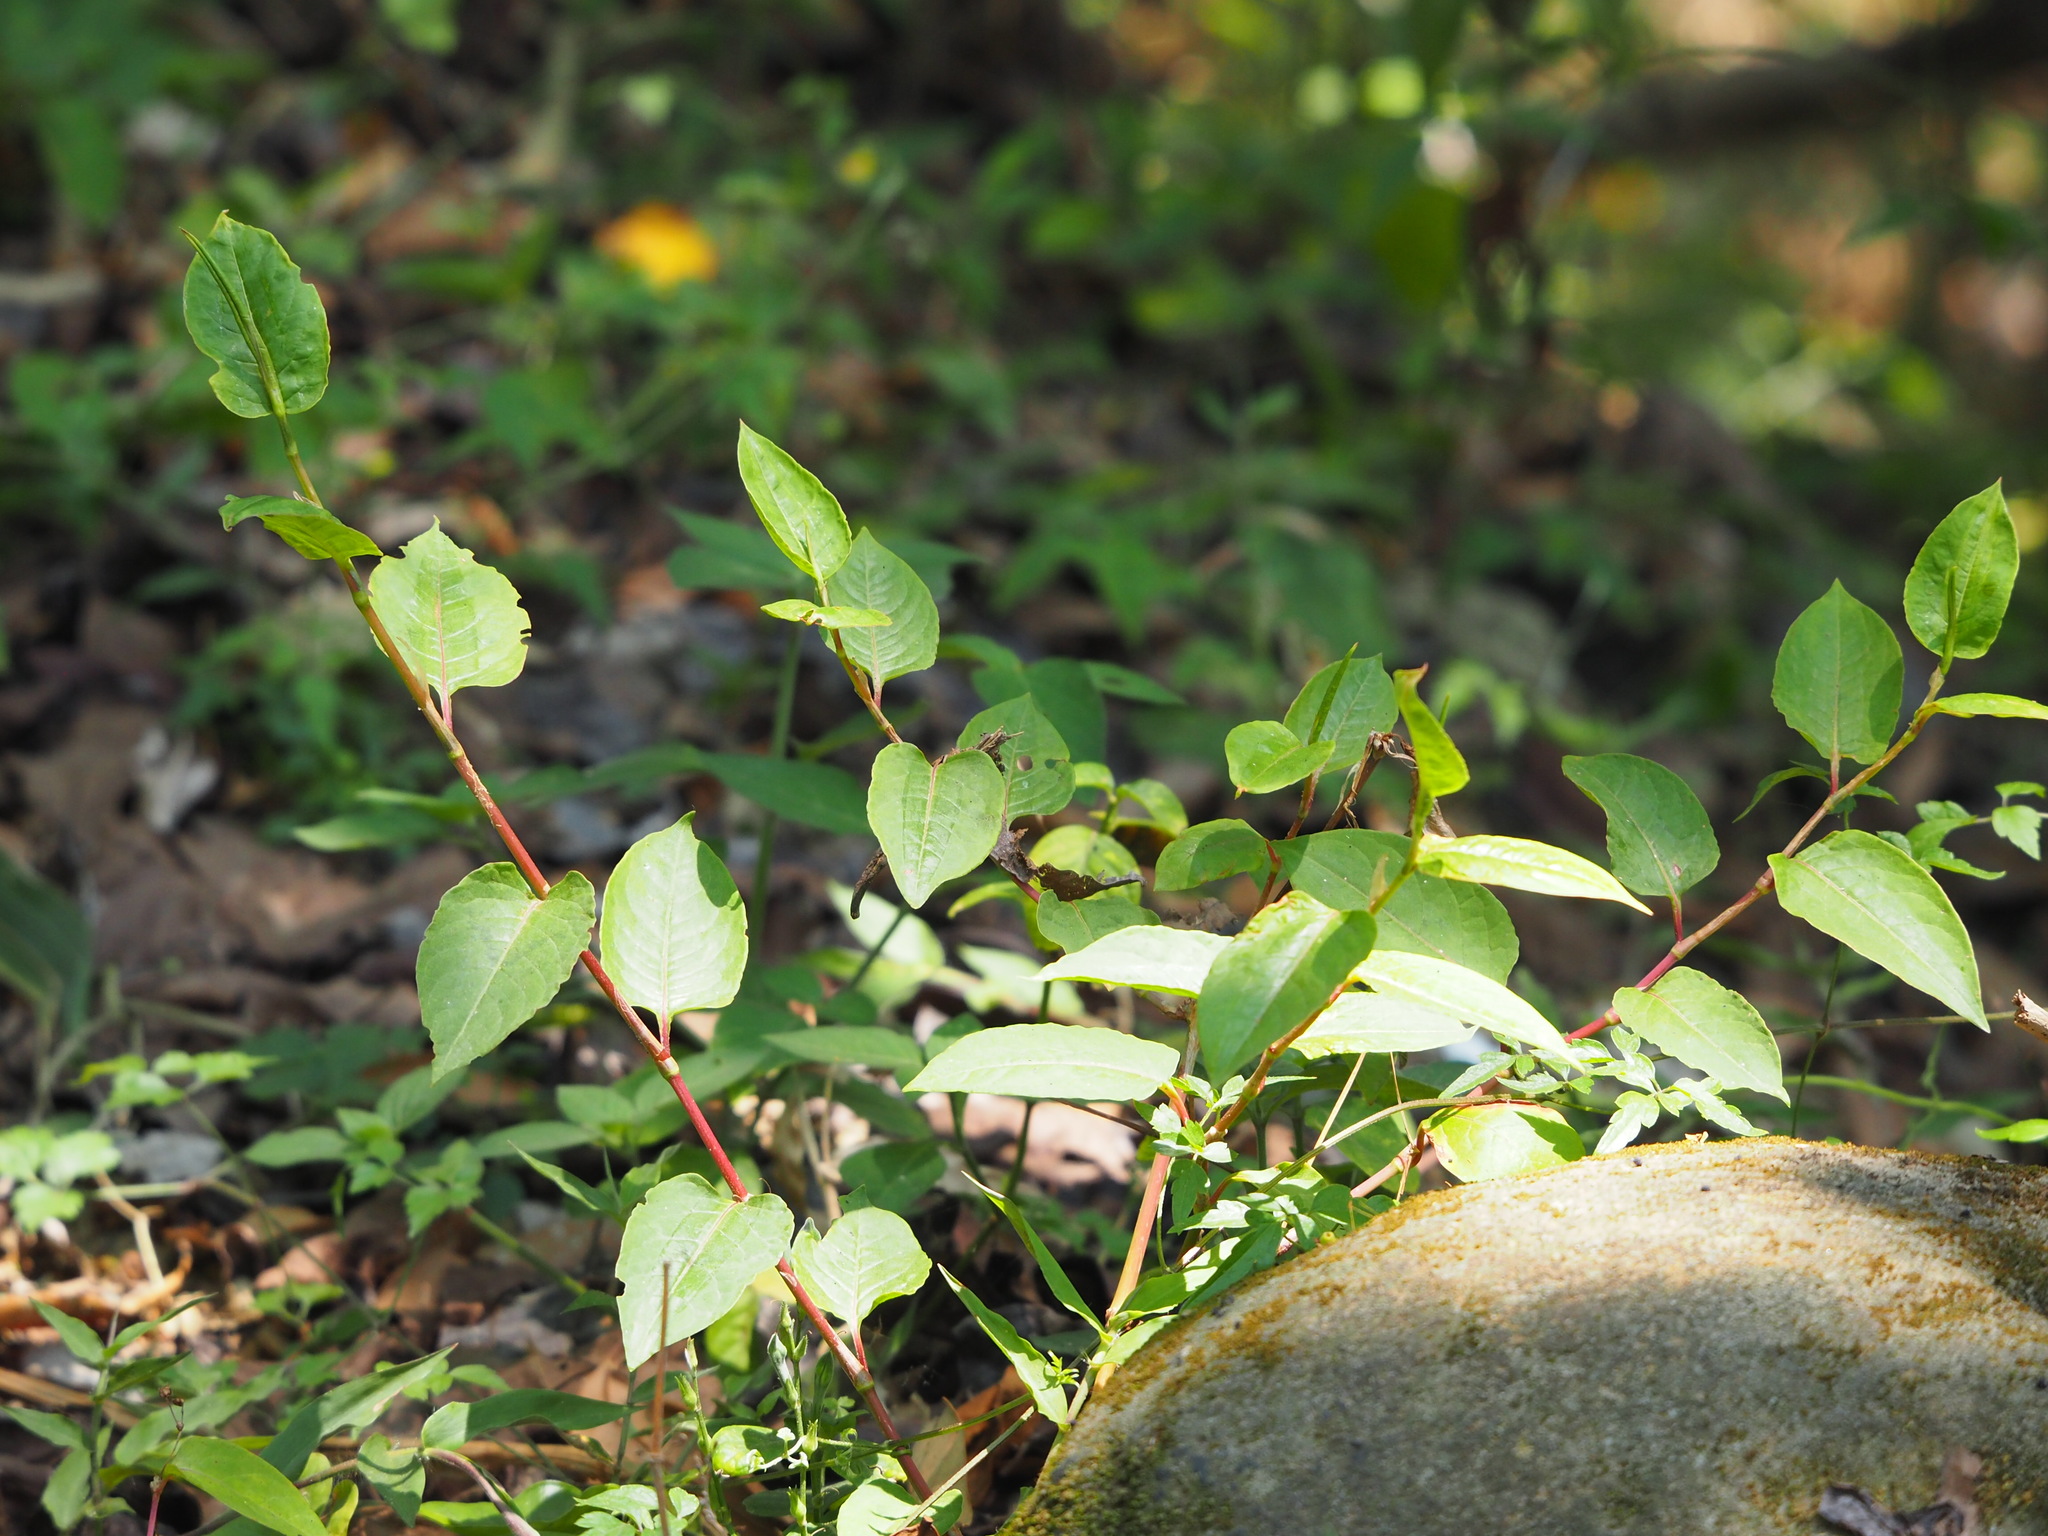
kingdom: Plantae
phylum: Tracheophyta
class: Magnoliopsida
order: Caryophyllales
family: Polygonaceae
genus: Persicaria
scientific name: Persicaria chinensis
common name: Chinese knotweed
